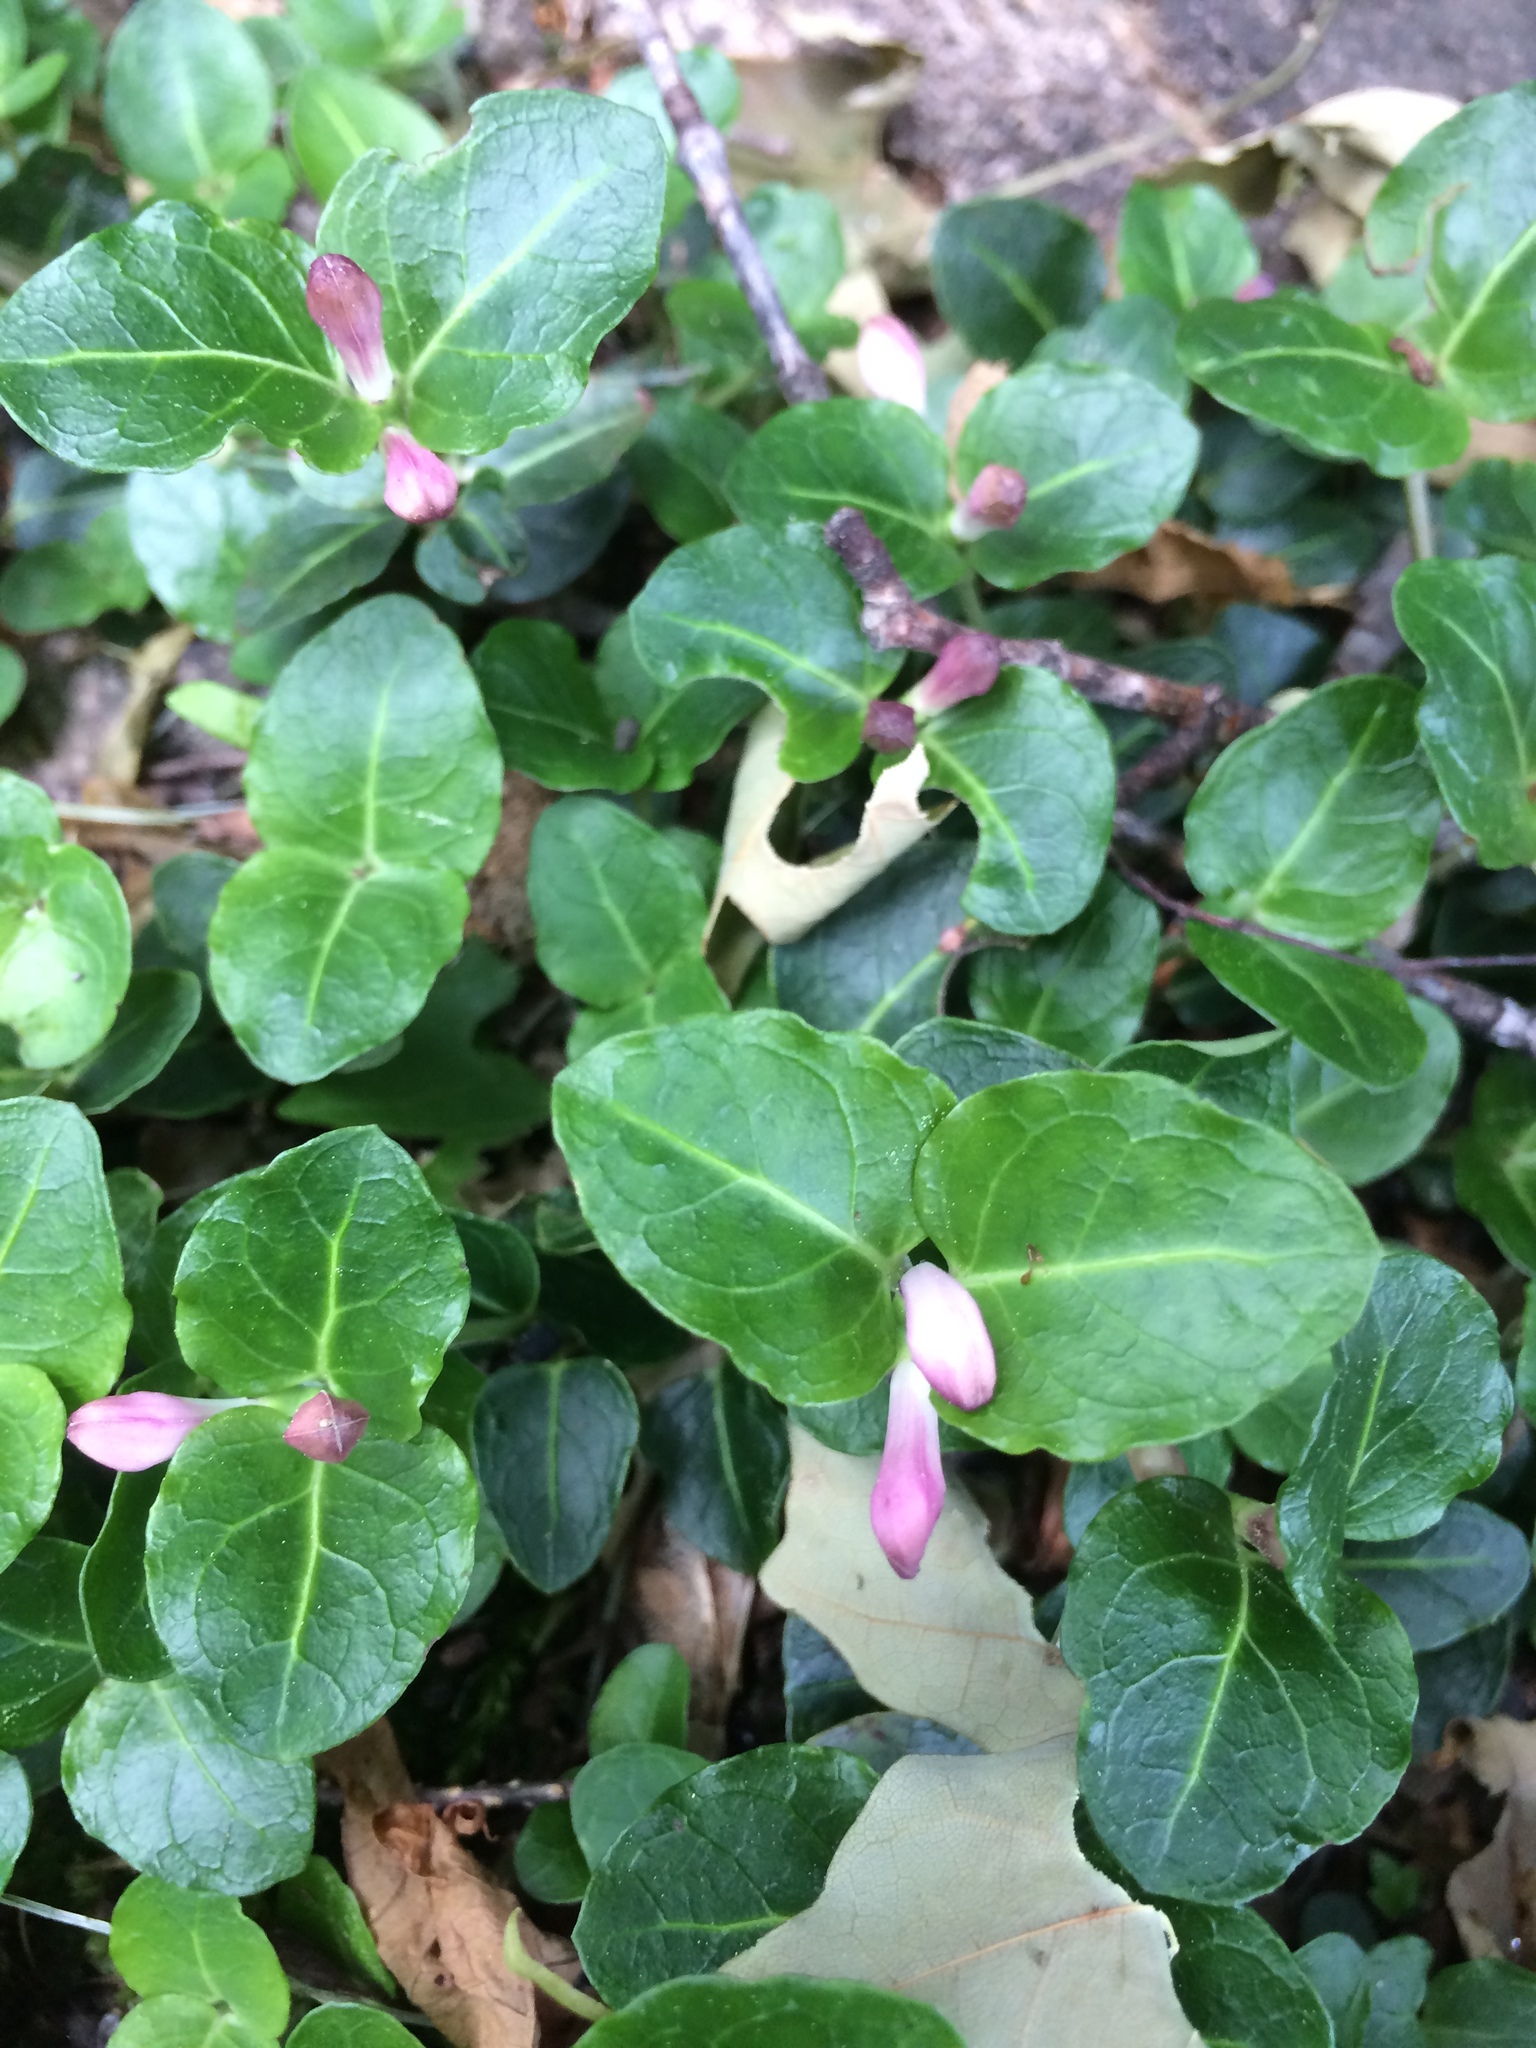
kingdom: Plantae
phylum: Tracheophyta
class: Magnoliopsida
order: Gentianales
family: Rubiaceae
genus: Mitchella
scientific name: Mitchella repens
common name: Partridge-berry
